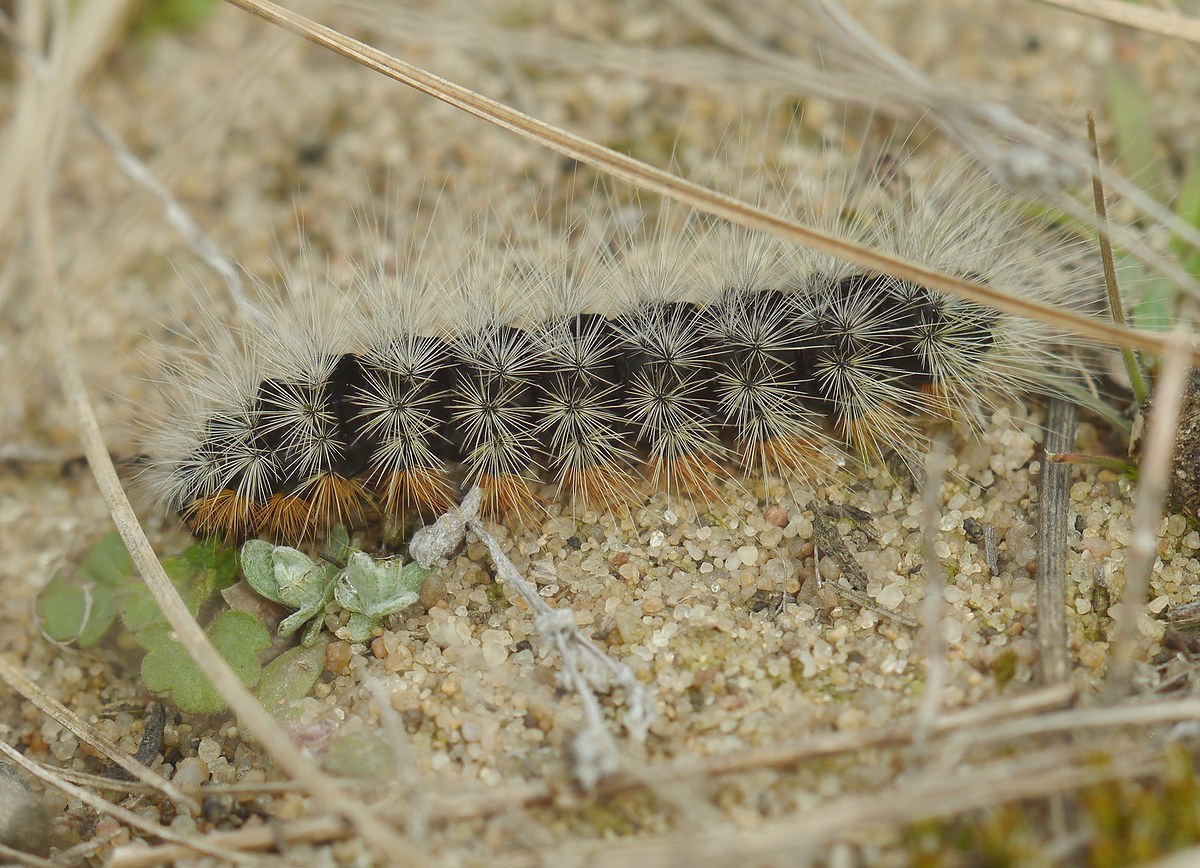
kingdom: Animalia
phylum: Arthropoda
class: Insecta
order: Lepidoptera
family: Erebidae
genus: Eucharia
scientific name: Eucharia festiva
